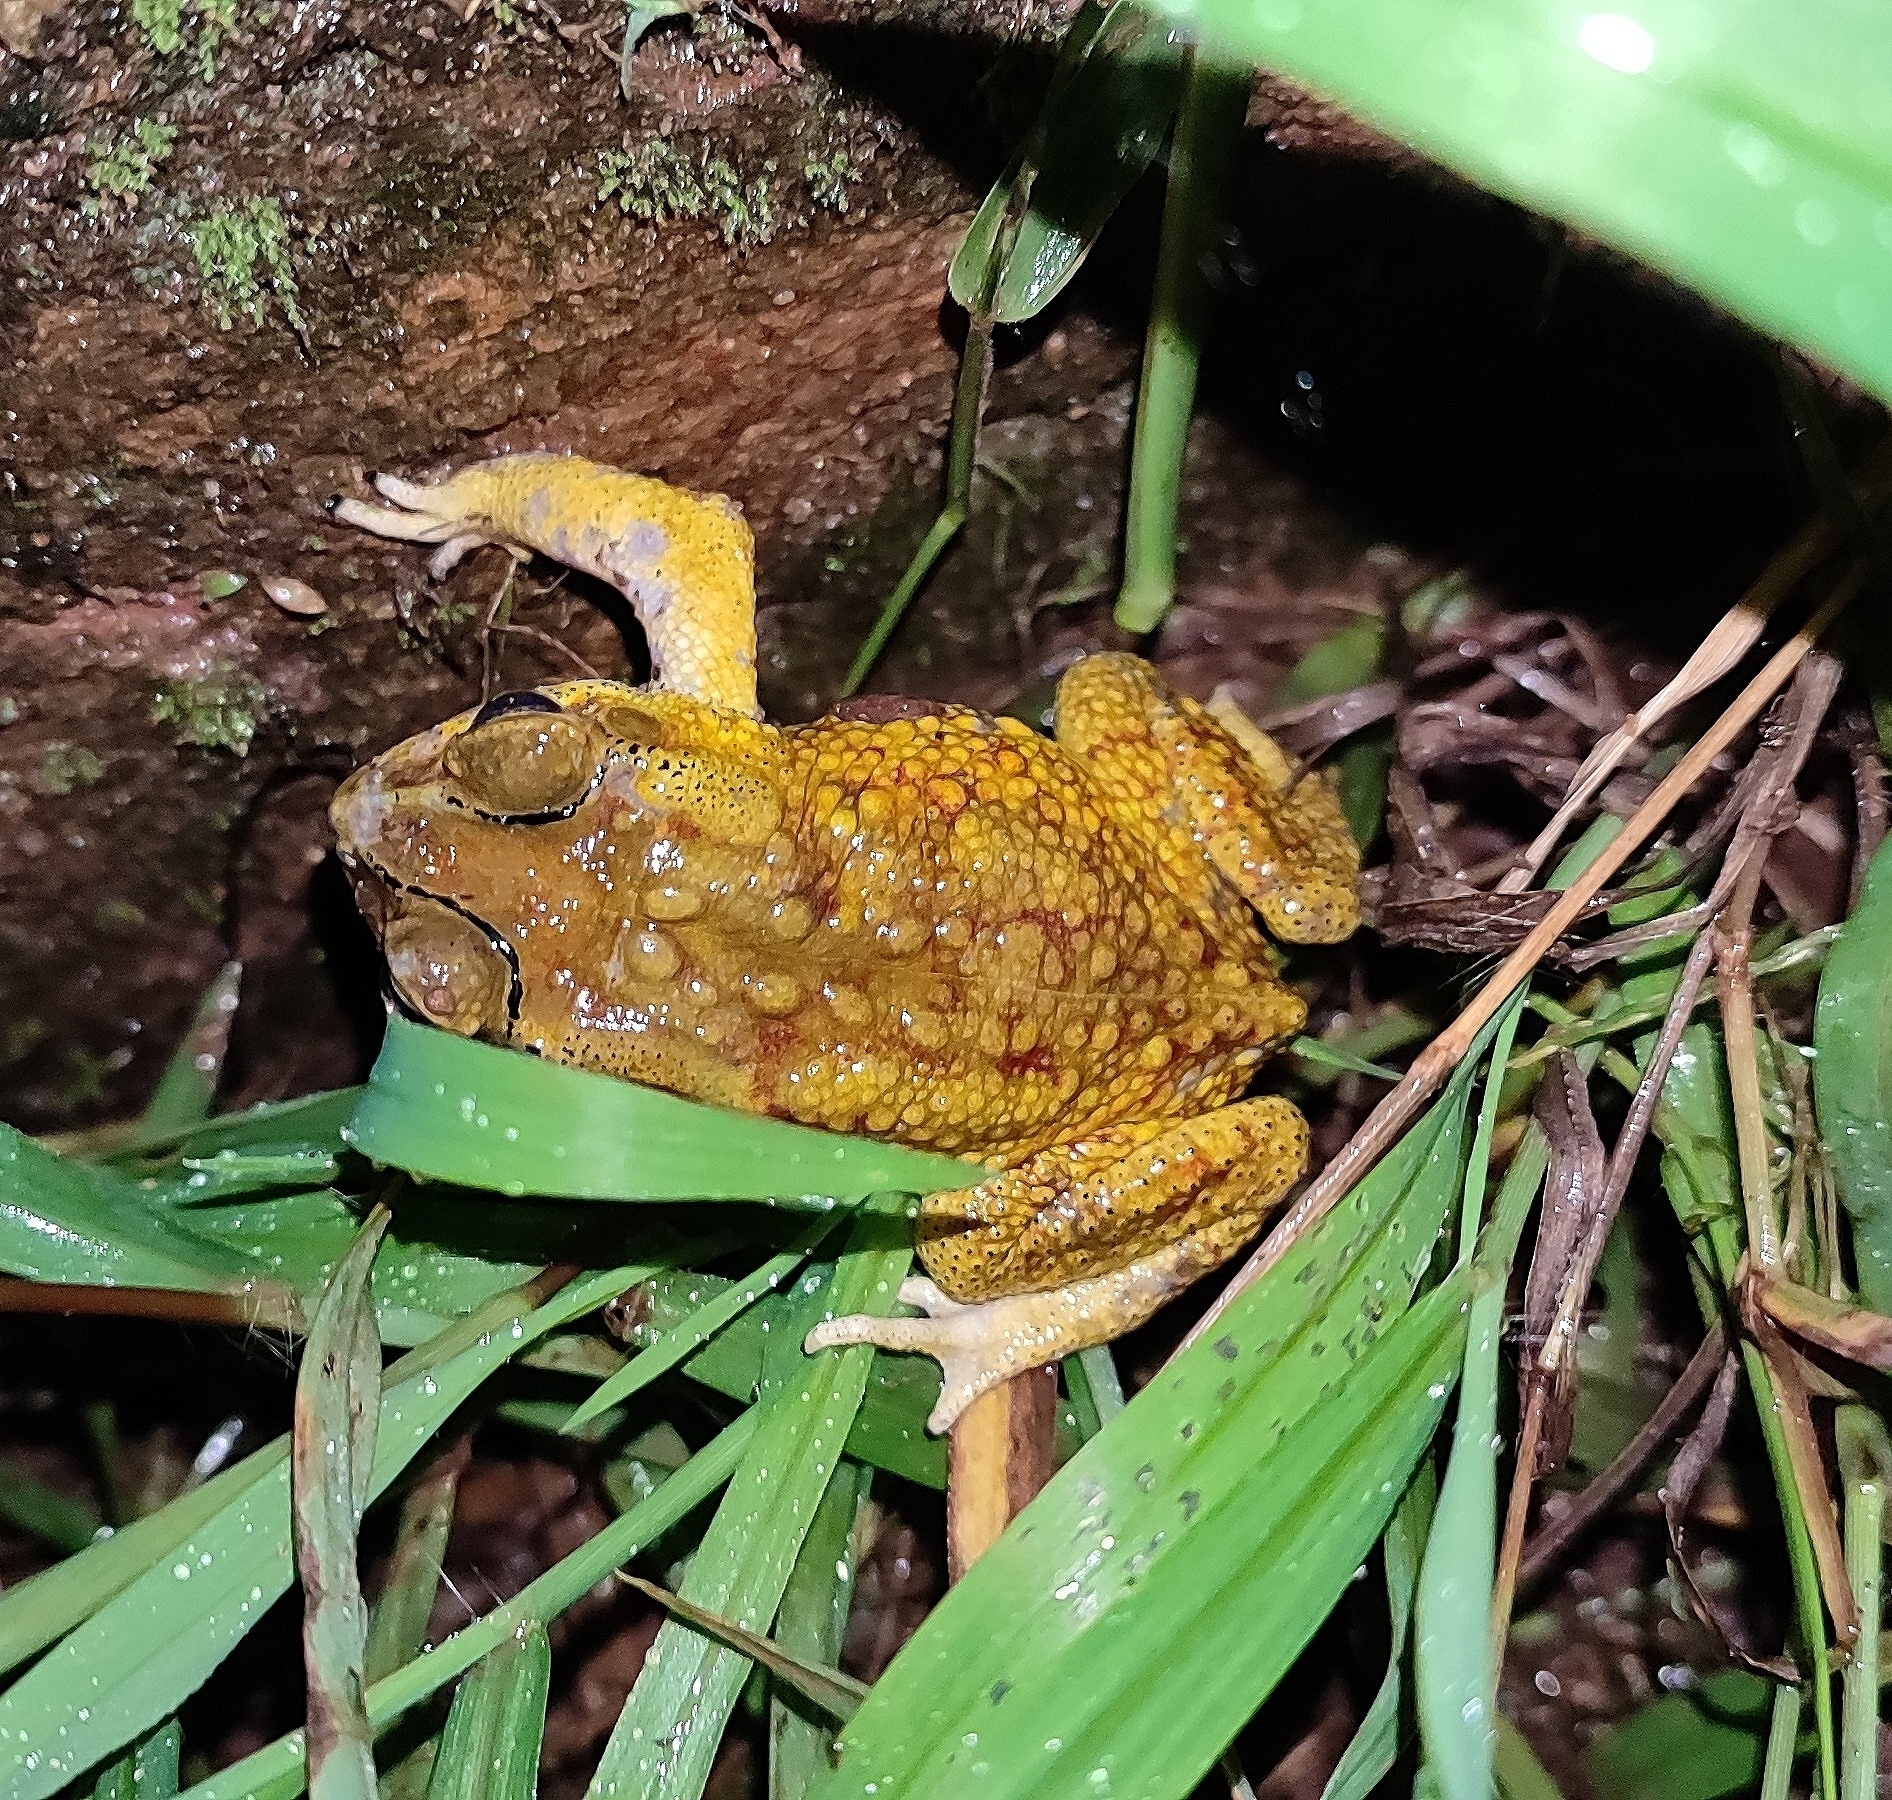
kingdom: Animalia
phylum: Chordata
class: Amphibia
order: Anura
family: Bufonidae
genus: Duttaphrynus
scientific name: Duttaphrynus melanostictus
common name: Common sunda toad
